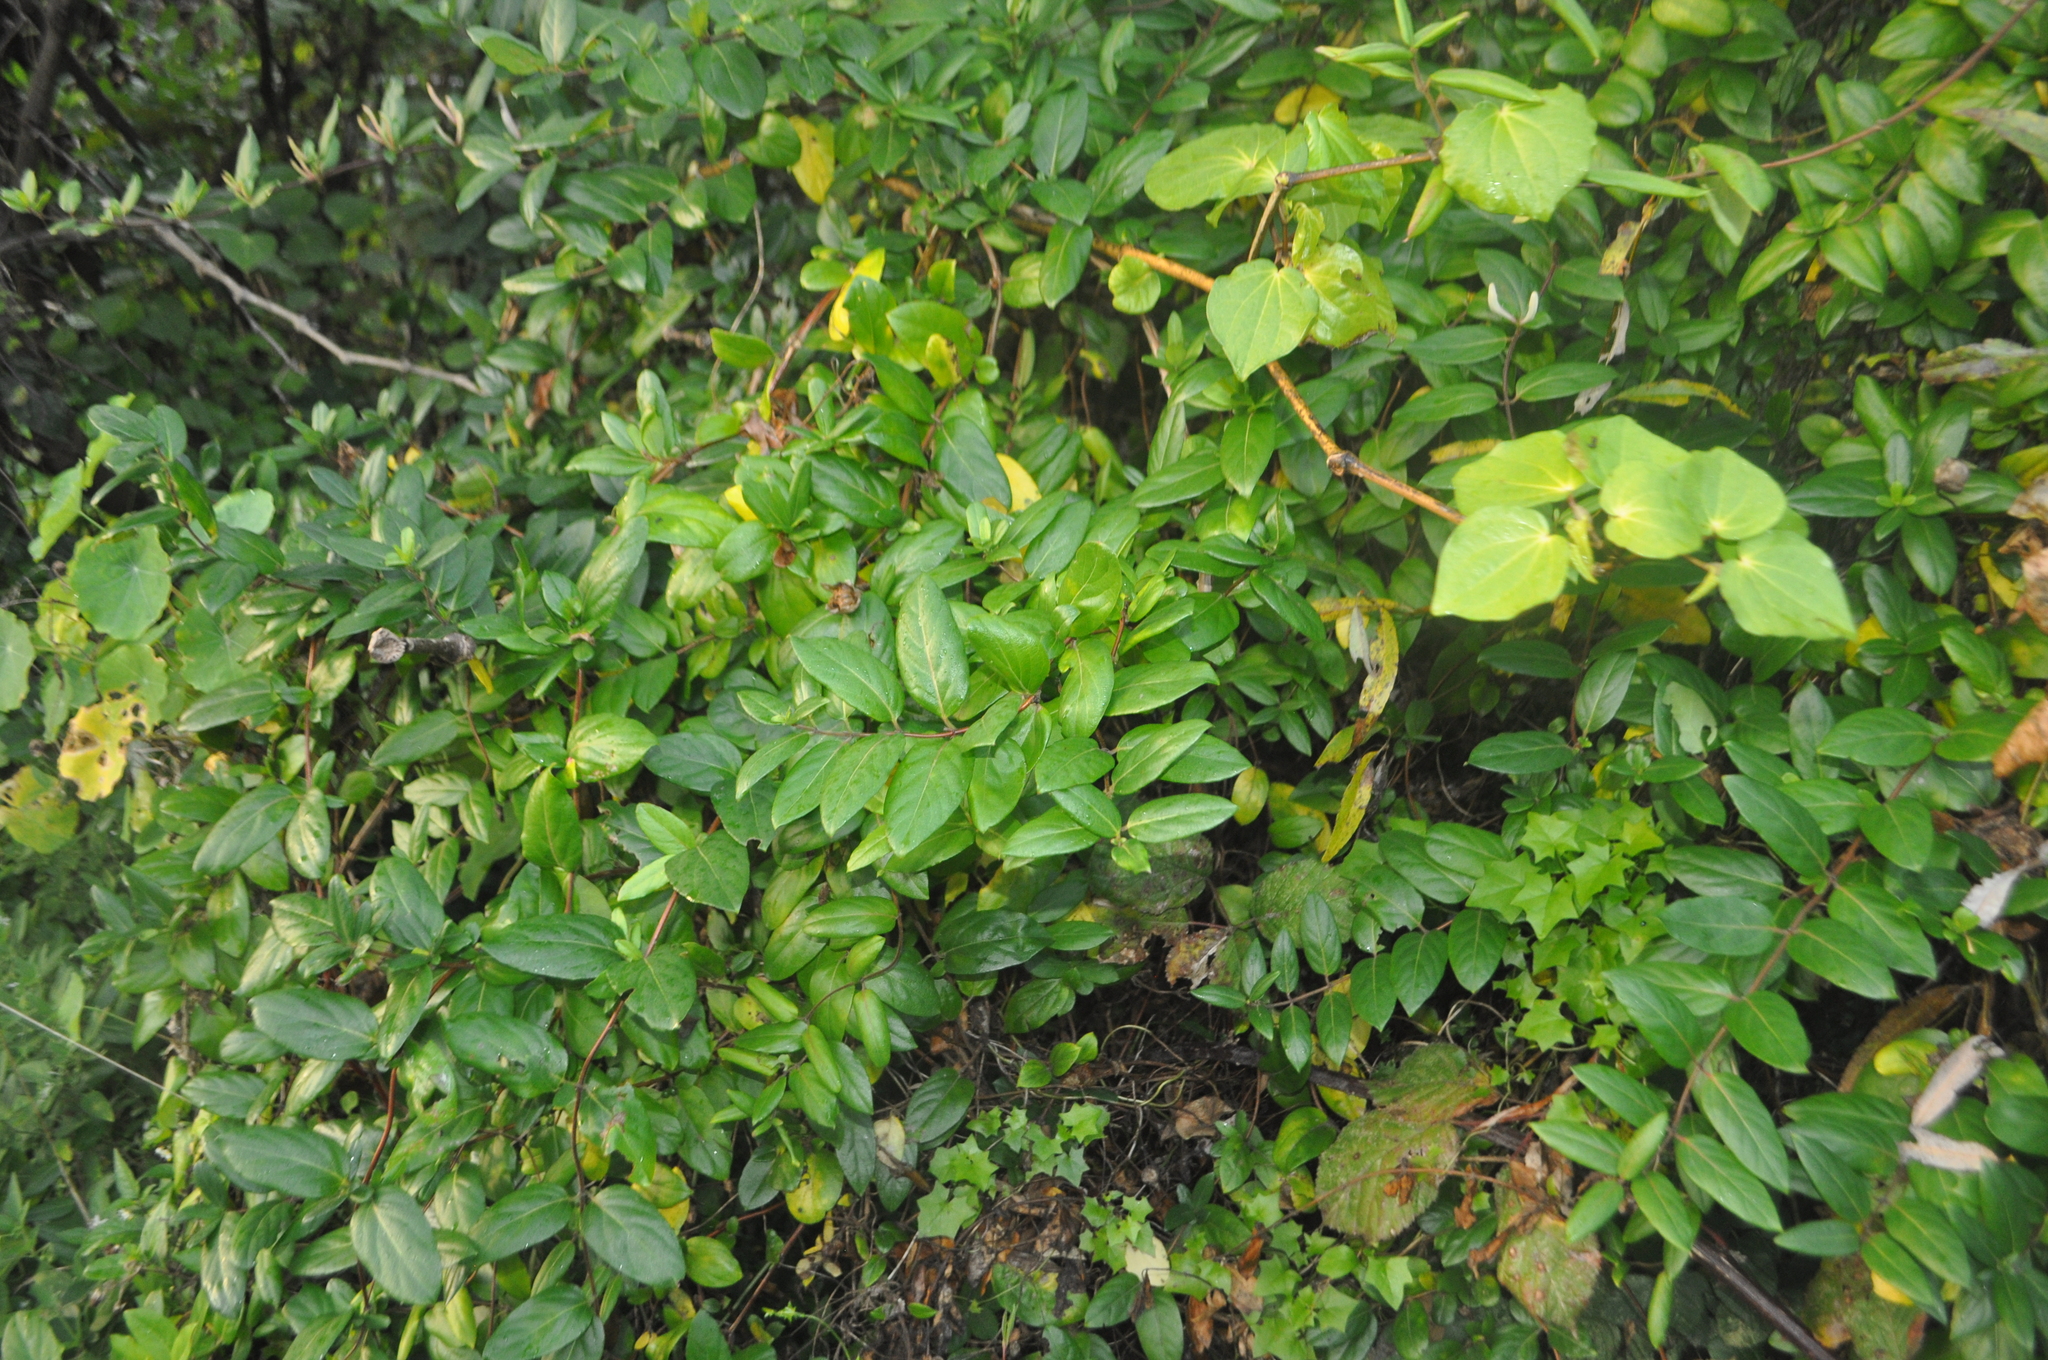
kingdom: Plantae
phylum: Tracheophyta
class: Magnoliopsida
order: Dipsacales
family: Caprifoliaceae
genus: Lonicera
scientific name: Lonicera japonica
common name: Japanese honeysuckle
